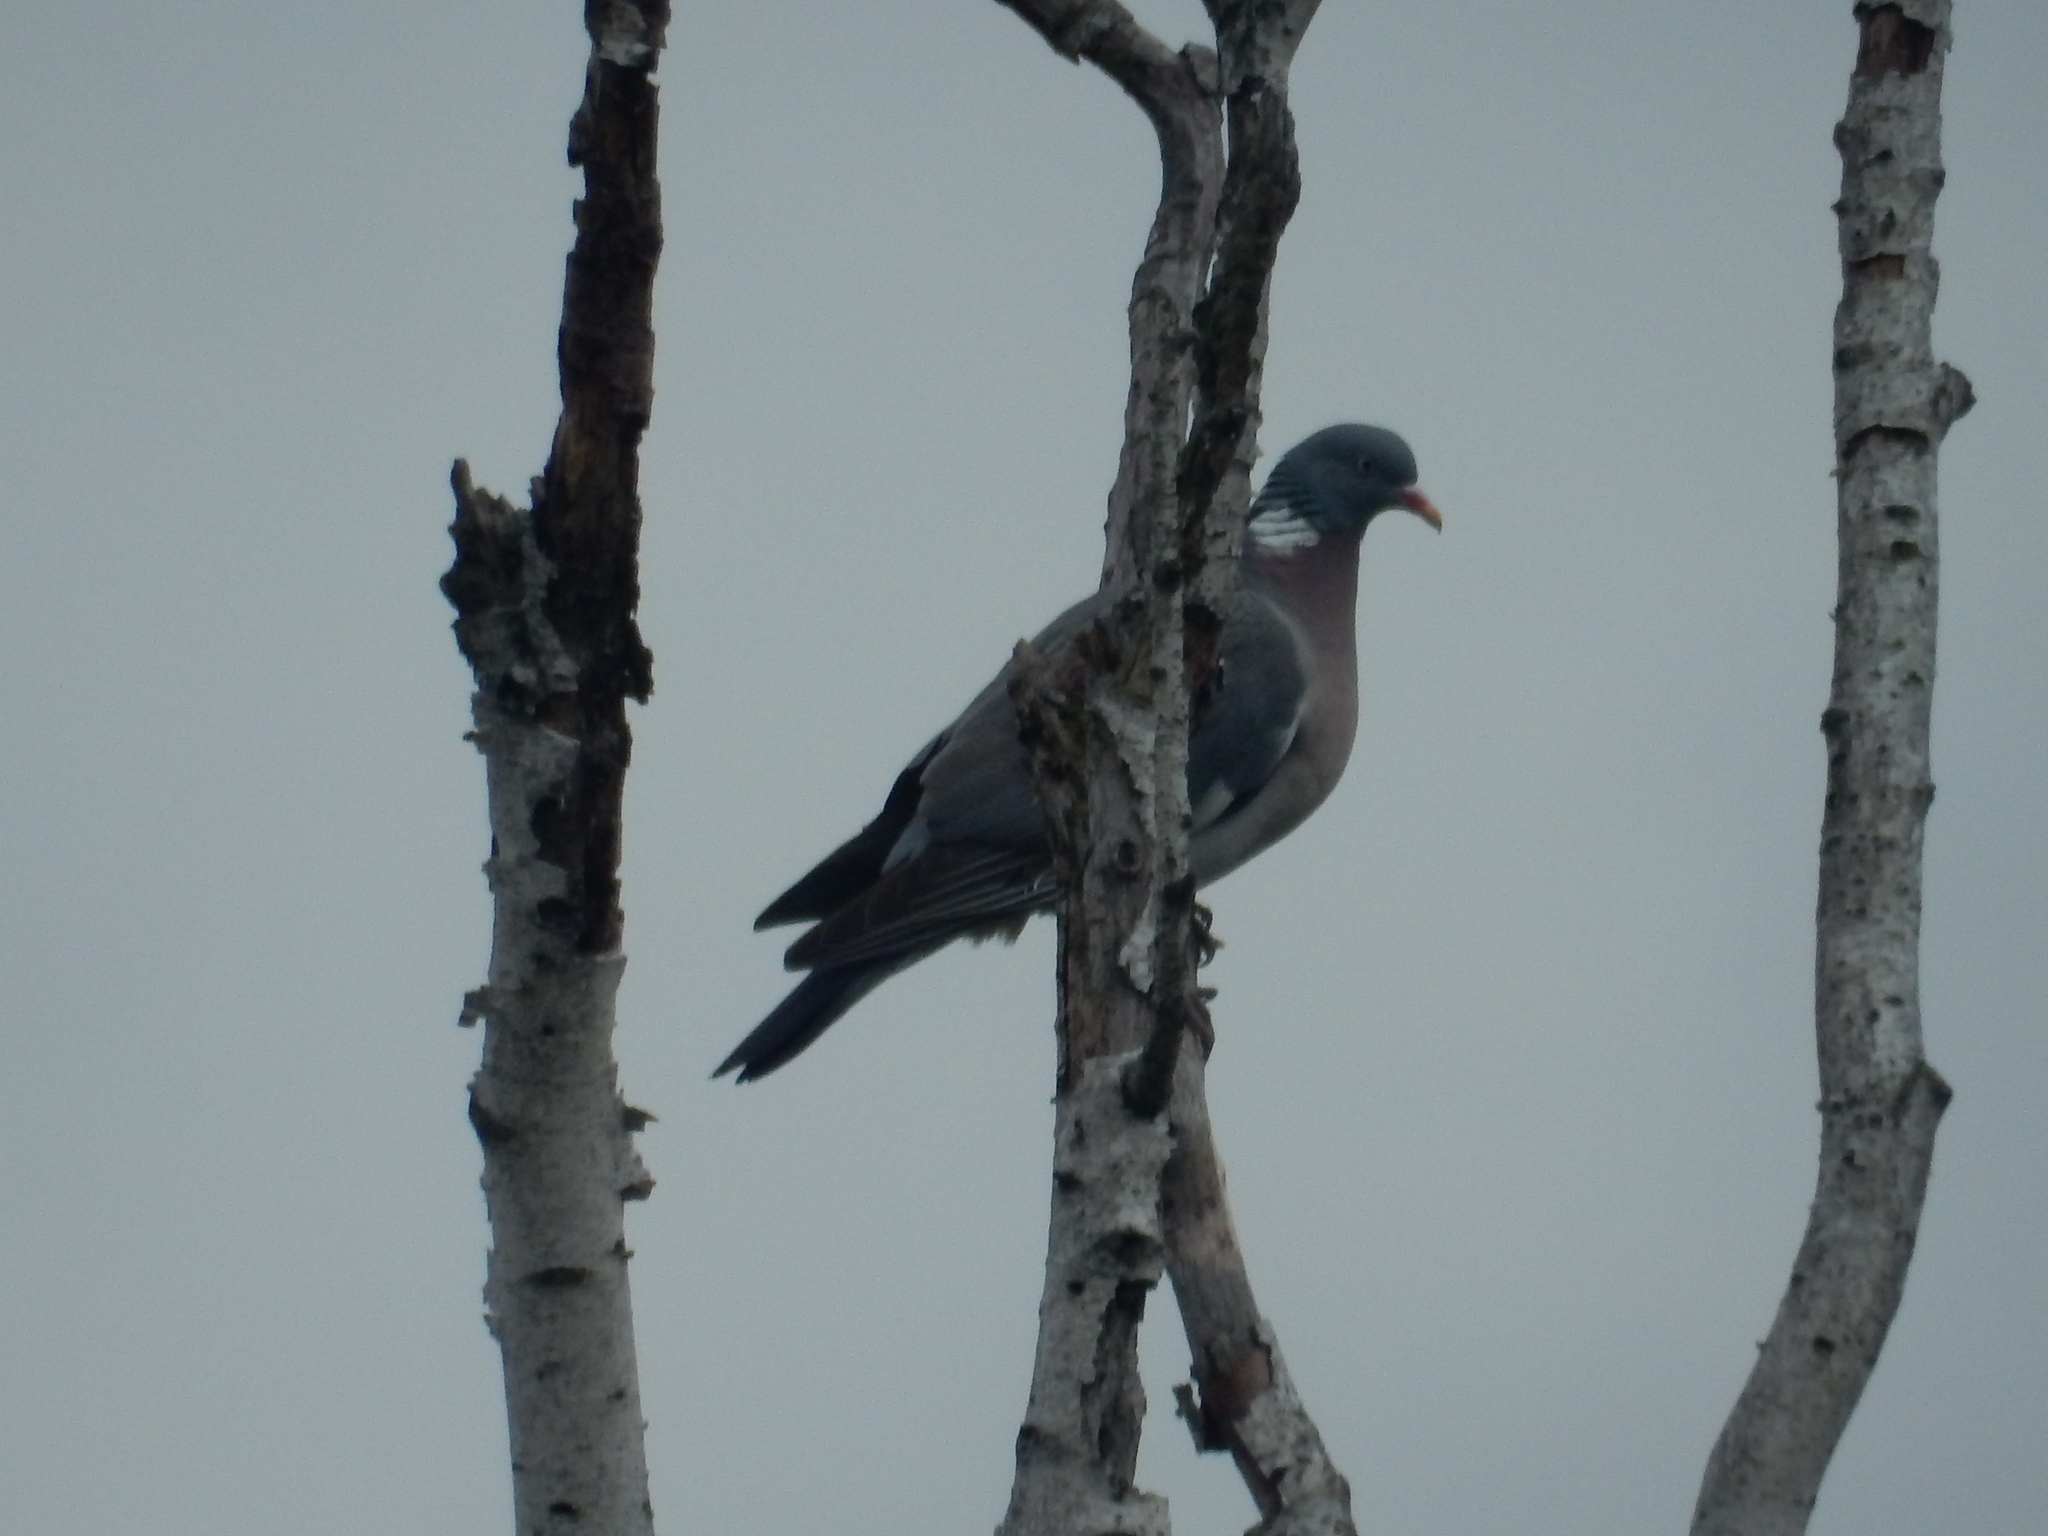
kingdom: Animalia
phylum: Chordata
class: Aves
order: Columbiformes
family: Columbidae
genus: Columba
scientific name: Columba palumbus
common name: Common wood pigeon
